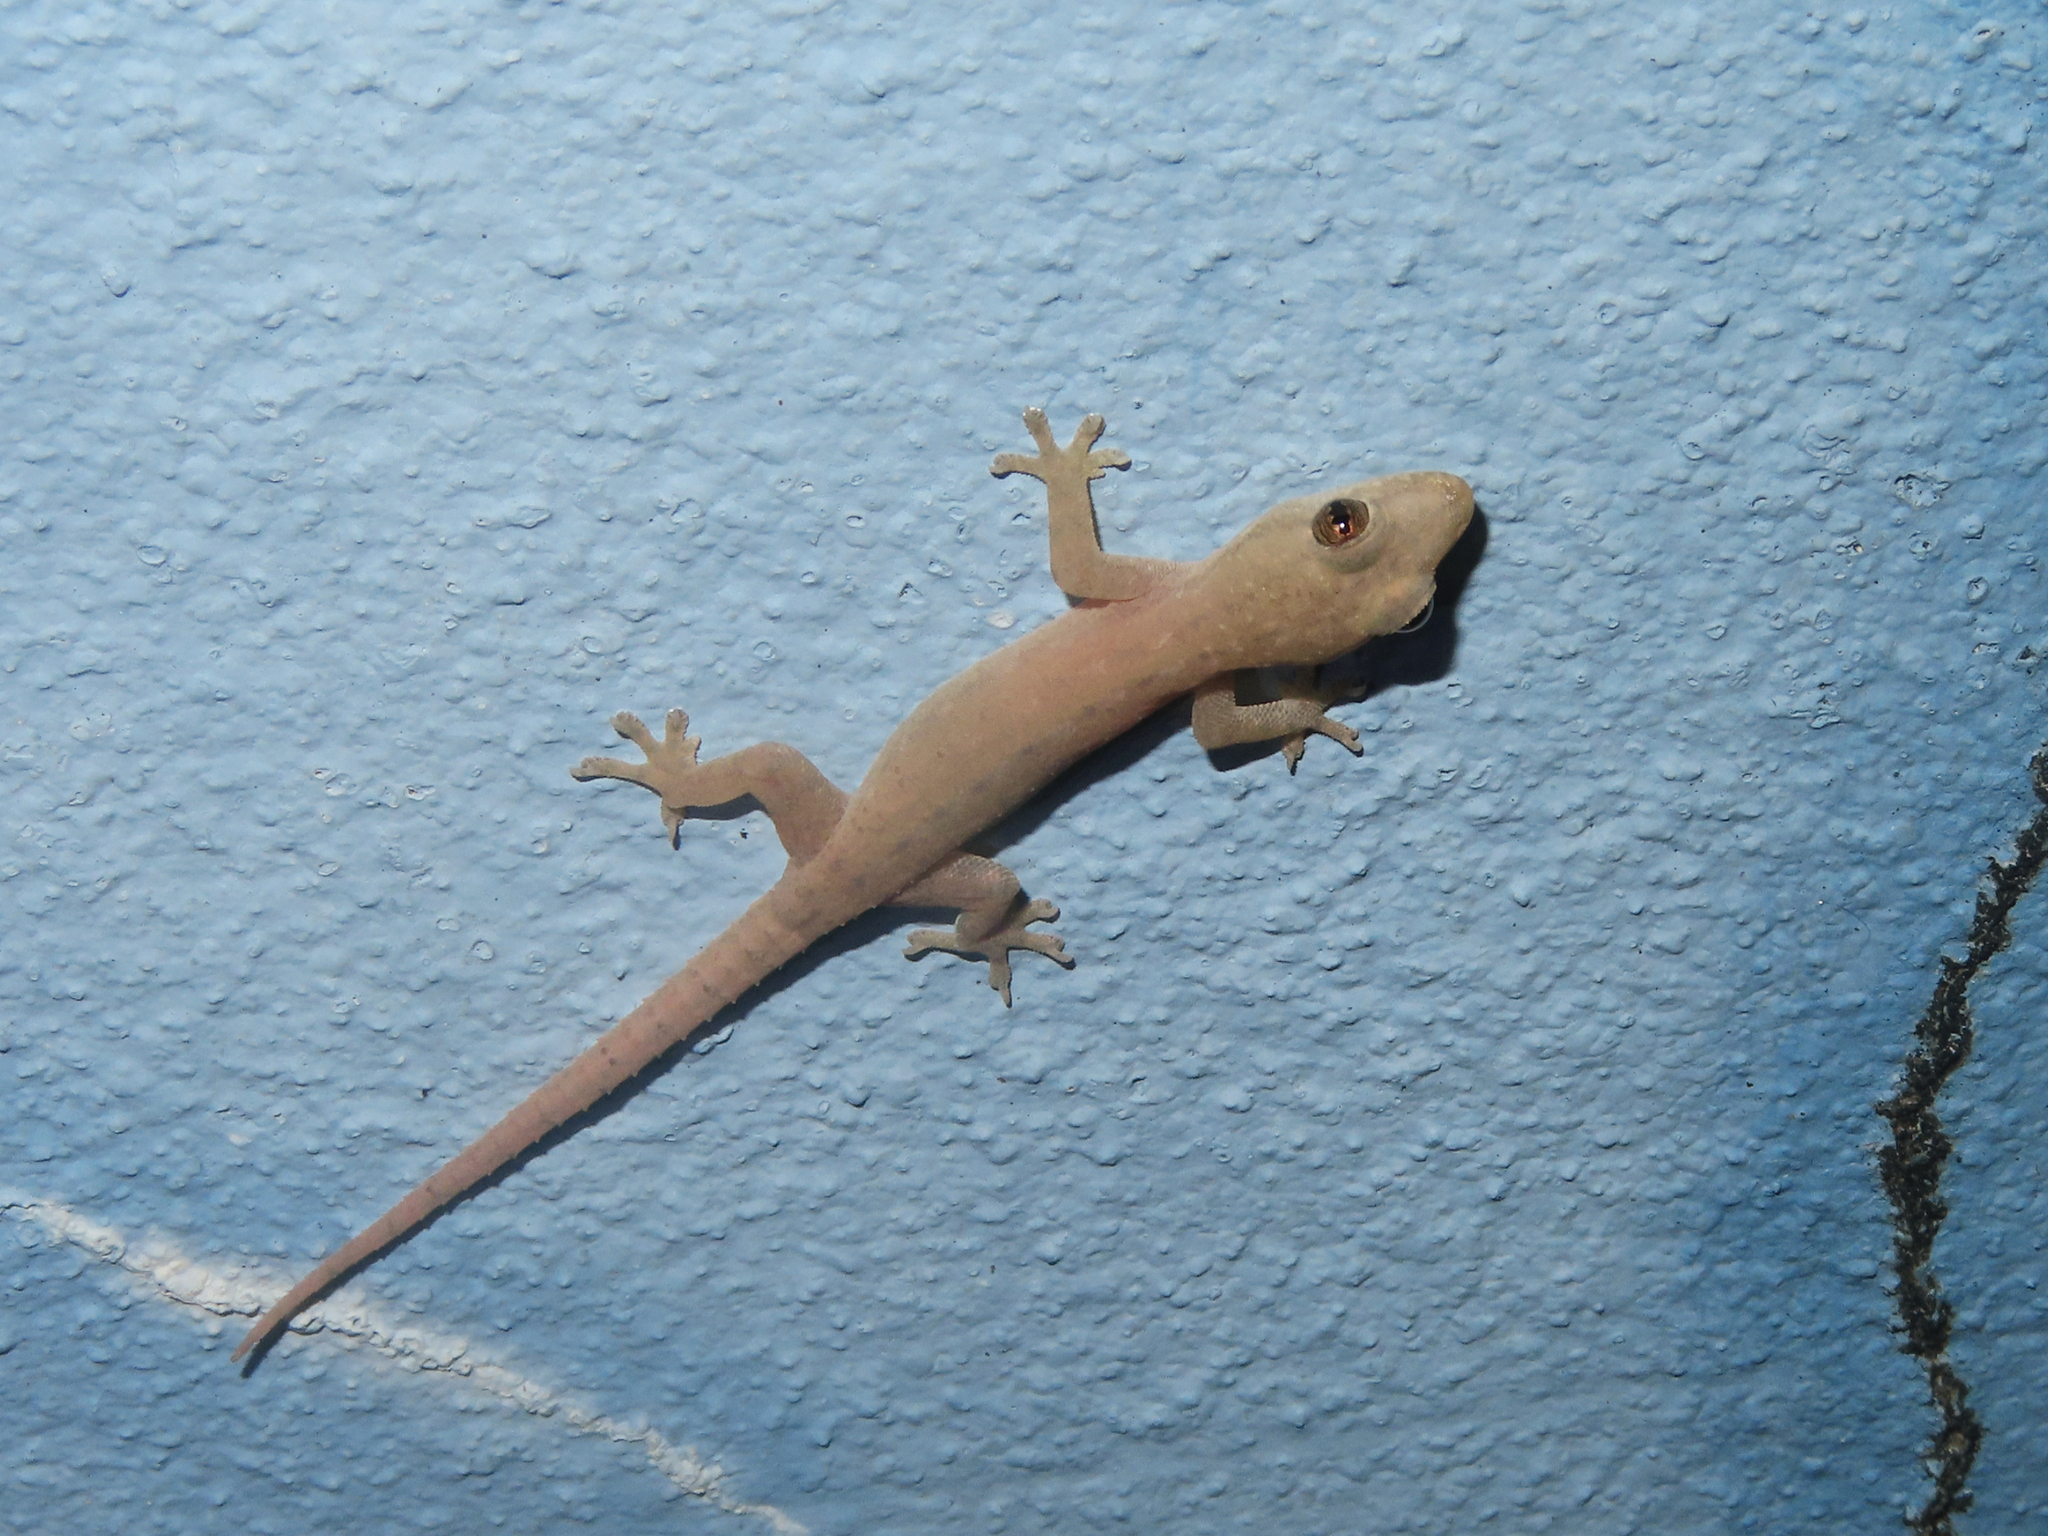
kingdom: Animalia
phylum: Chordata
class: Squamata
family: Gekkonidae
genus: Hemidactylus
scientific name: Hemidactylus frenatus
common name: Common house gecko
